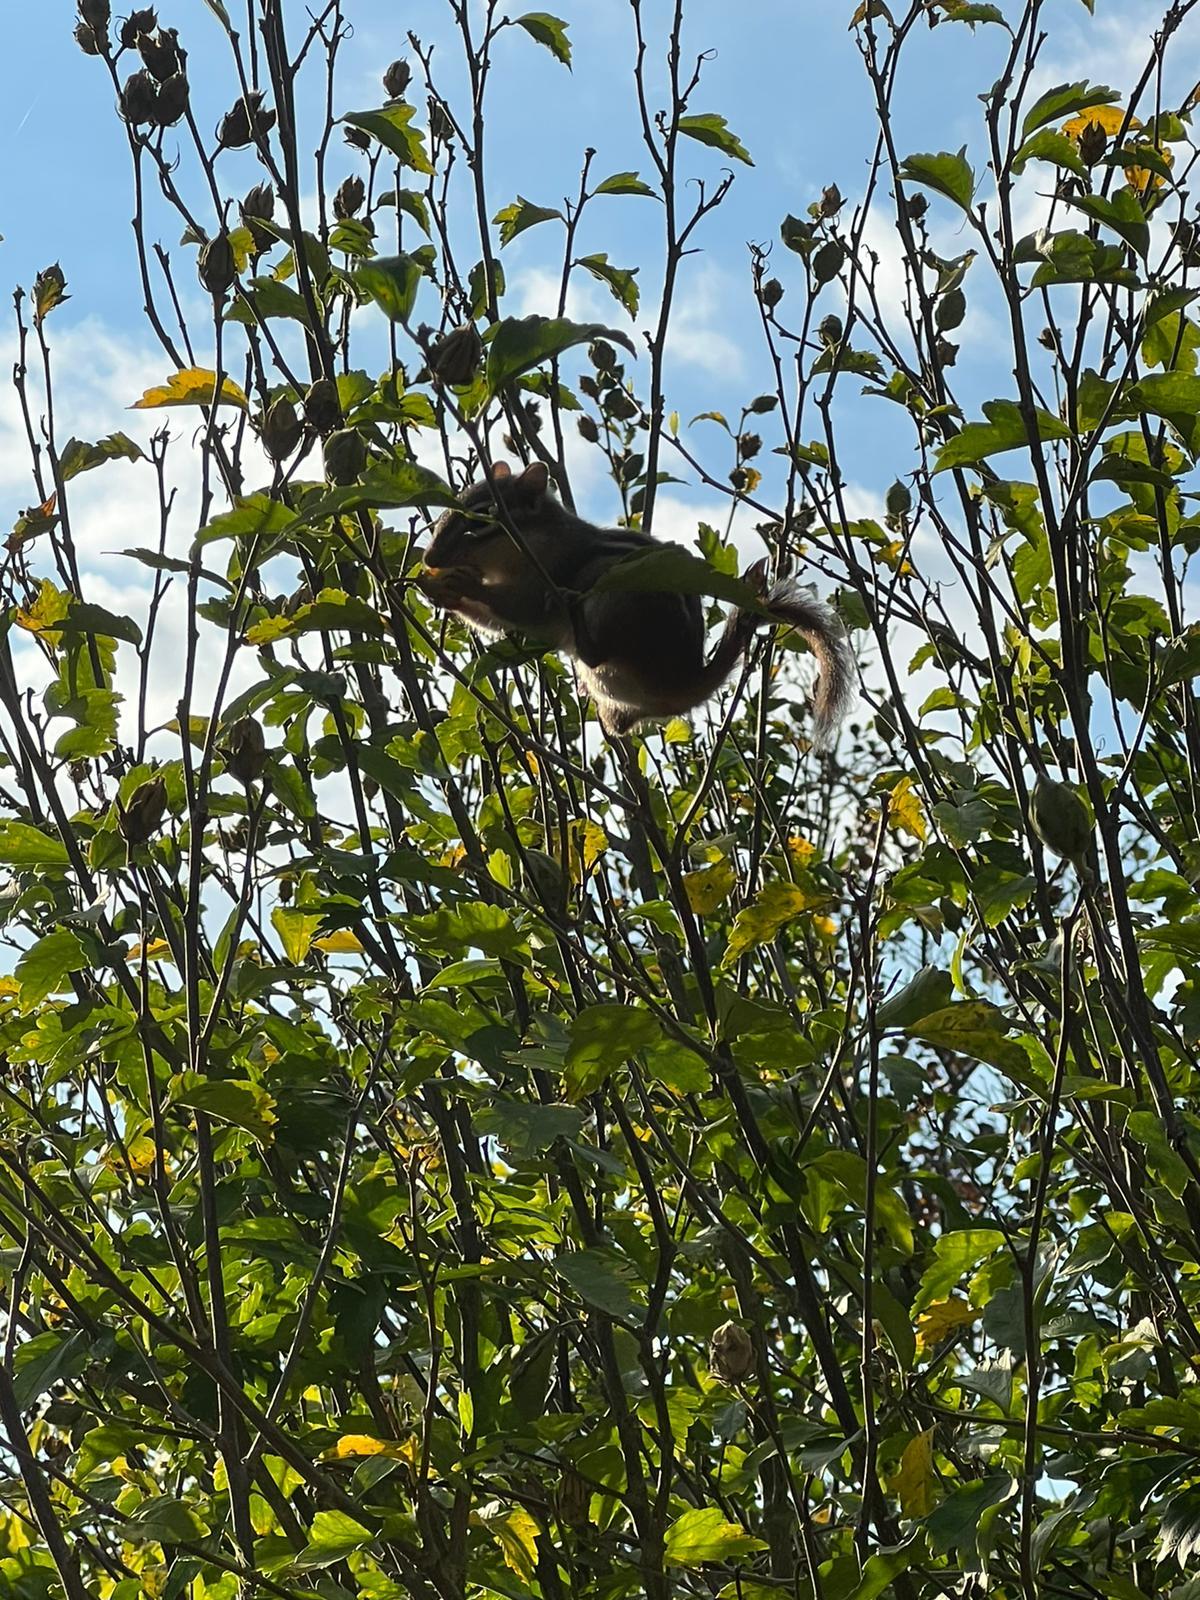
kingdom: Animalia
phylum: Chordata
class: Mammalia
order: Rodentia
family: Sciuridae
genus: Tamias
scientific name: Tamias striatus
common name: Eastern chipmunk
